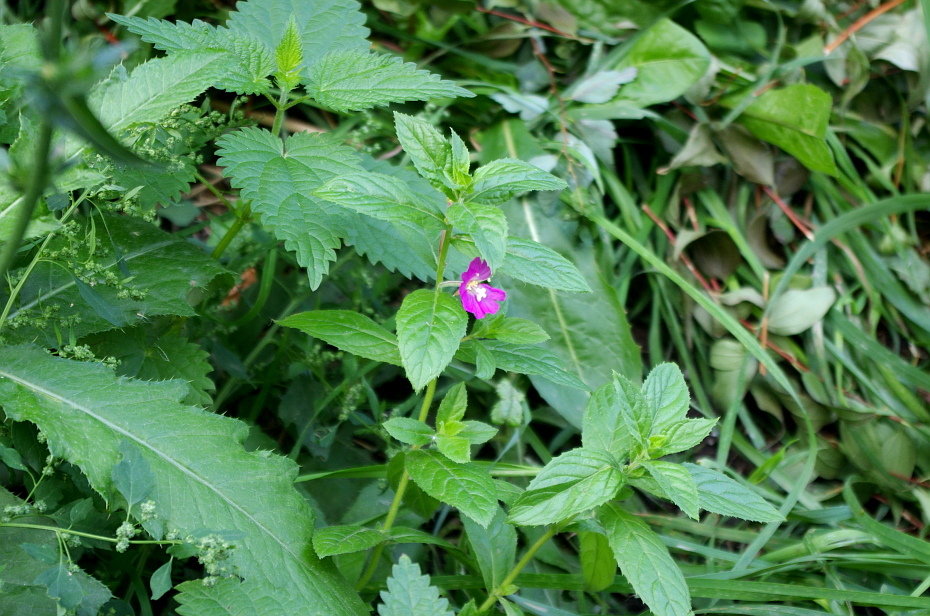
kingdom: Plantae
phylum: Tracheophyta
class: Magnoliopsida
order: Myrtales
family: Onagraceae
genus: Epilobium
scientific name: Epilobium hirsutum
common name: Great willowherb
